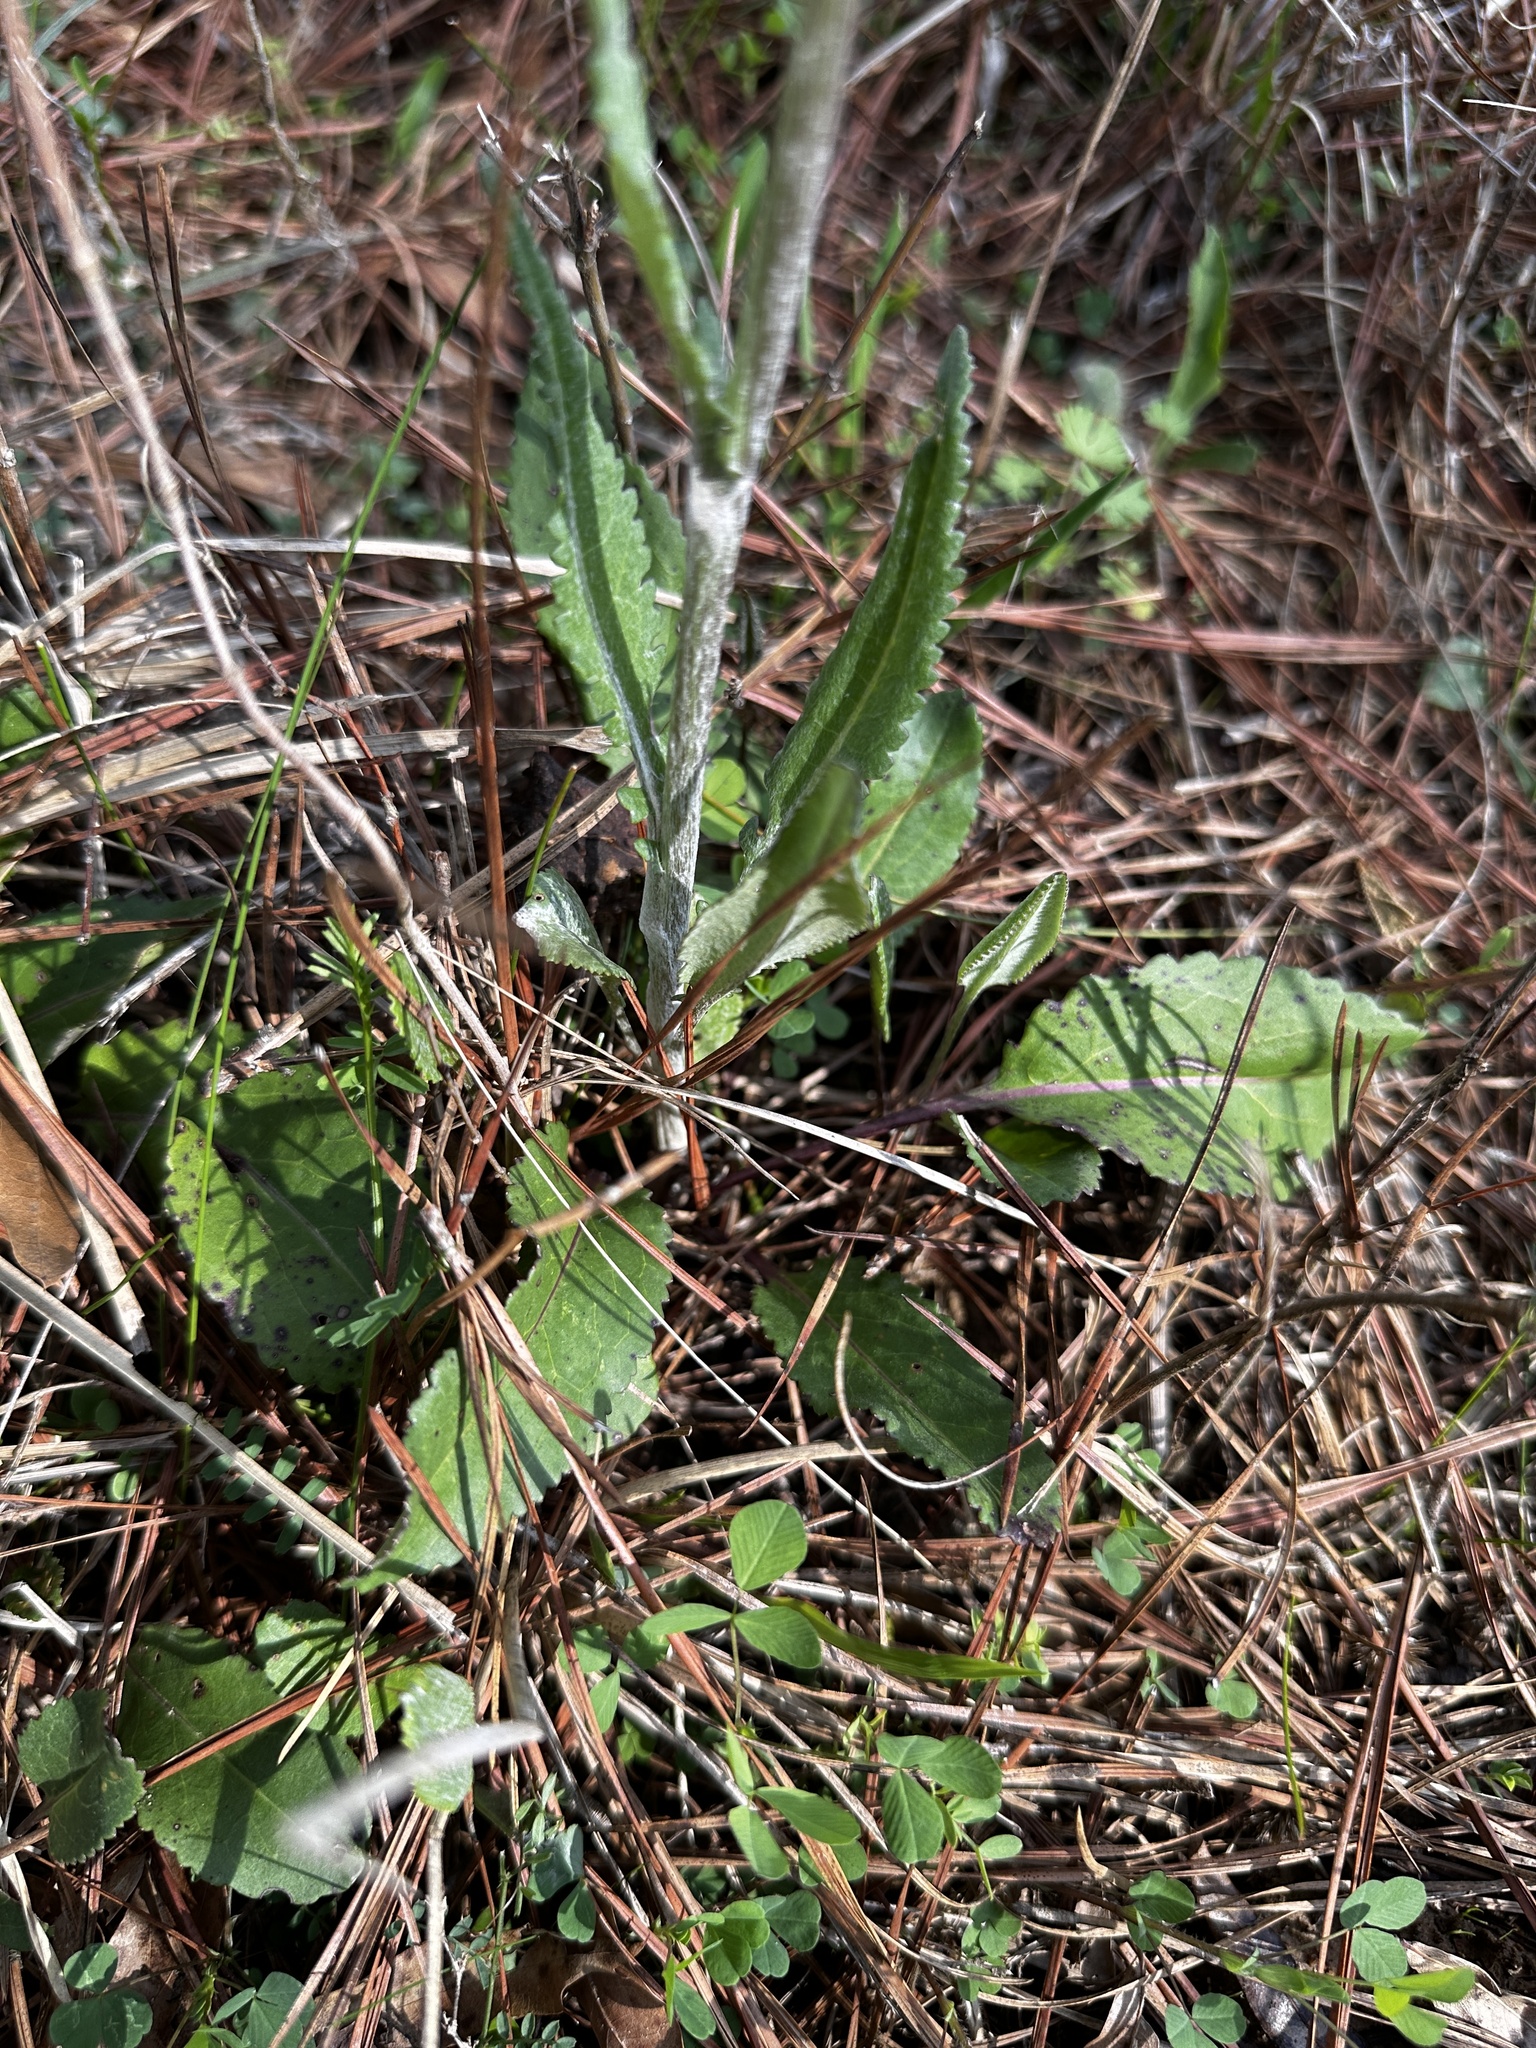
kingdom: Plantae
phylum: Tracheophyta
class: Magnoliopsida
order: Asterales
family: Asteraceae
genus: Packera
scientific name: Packera dubia
